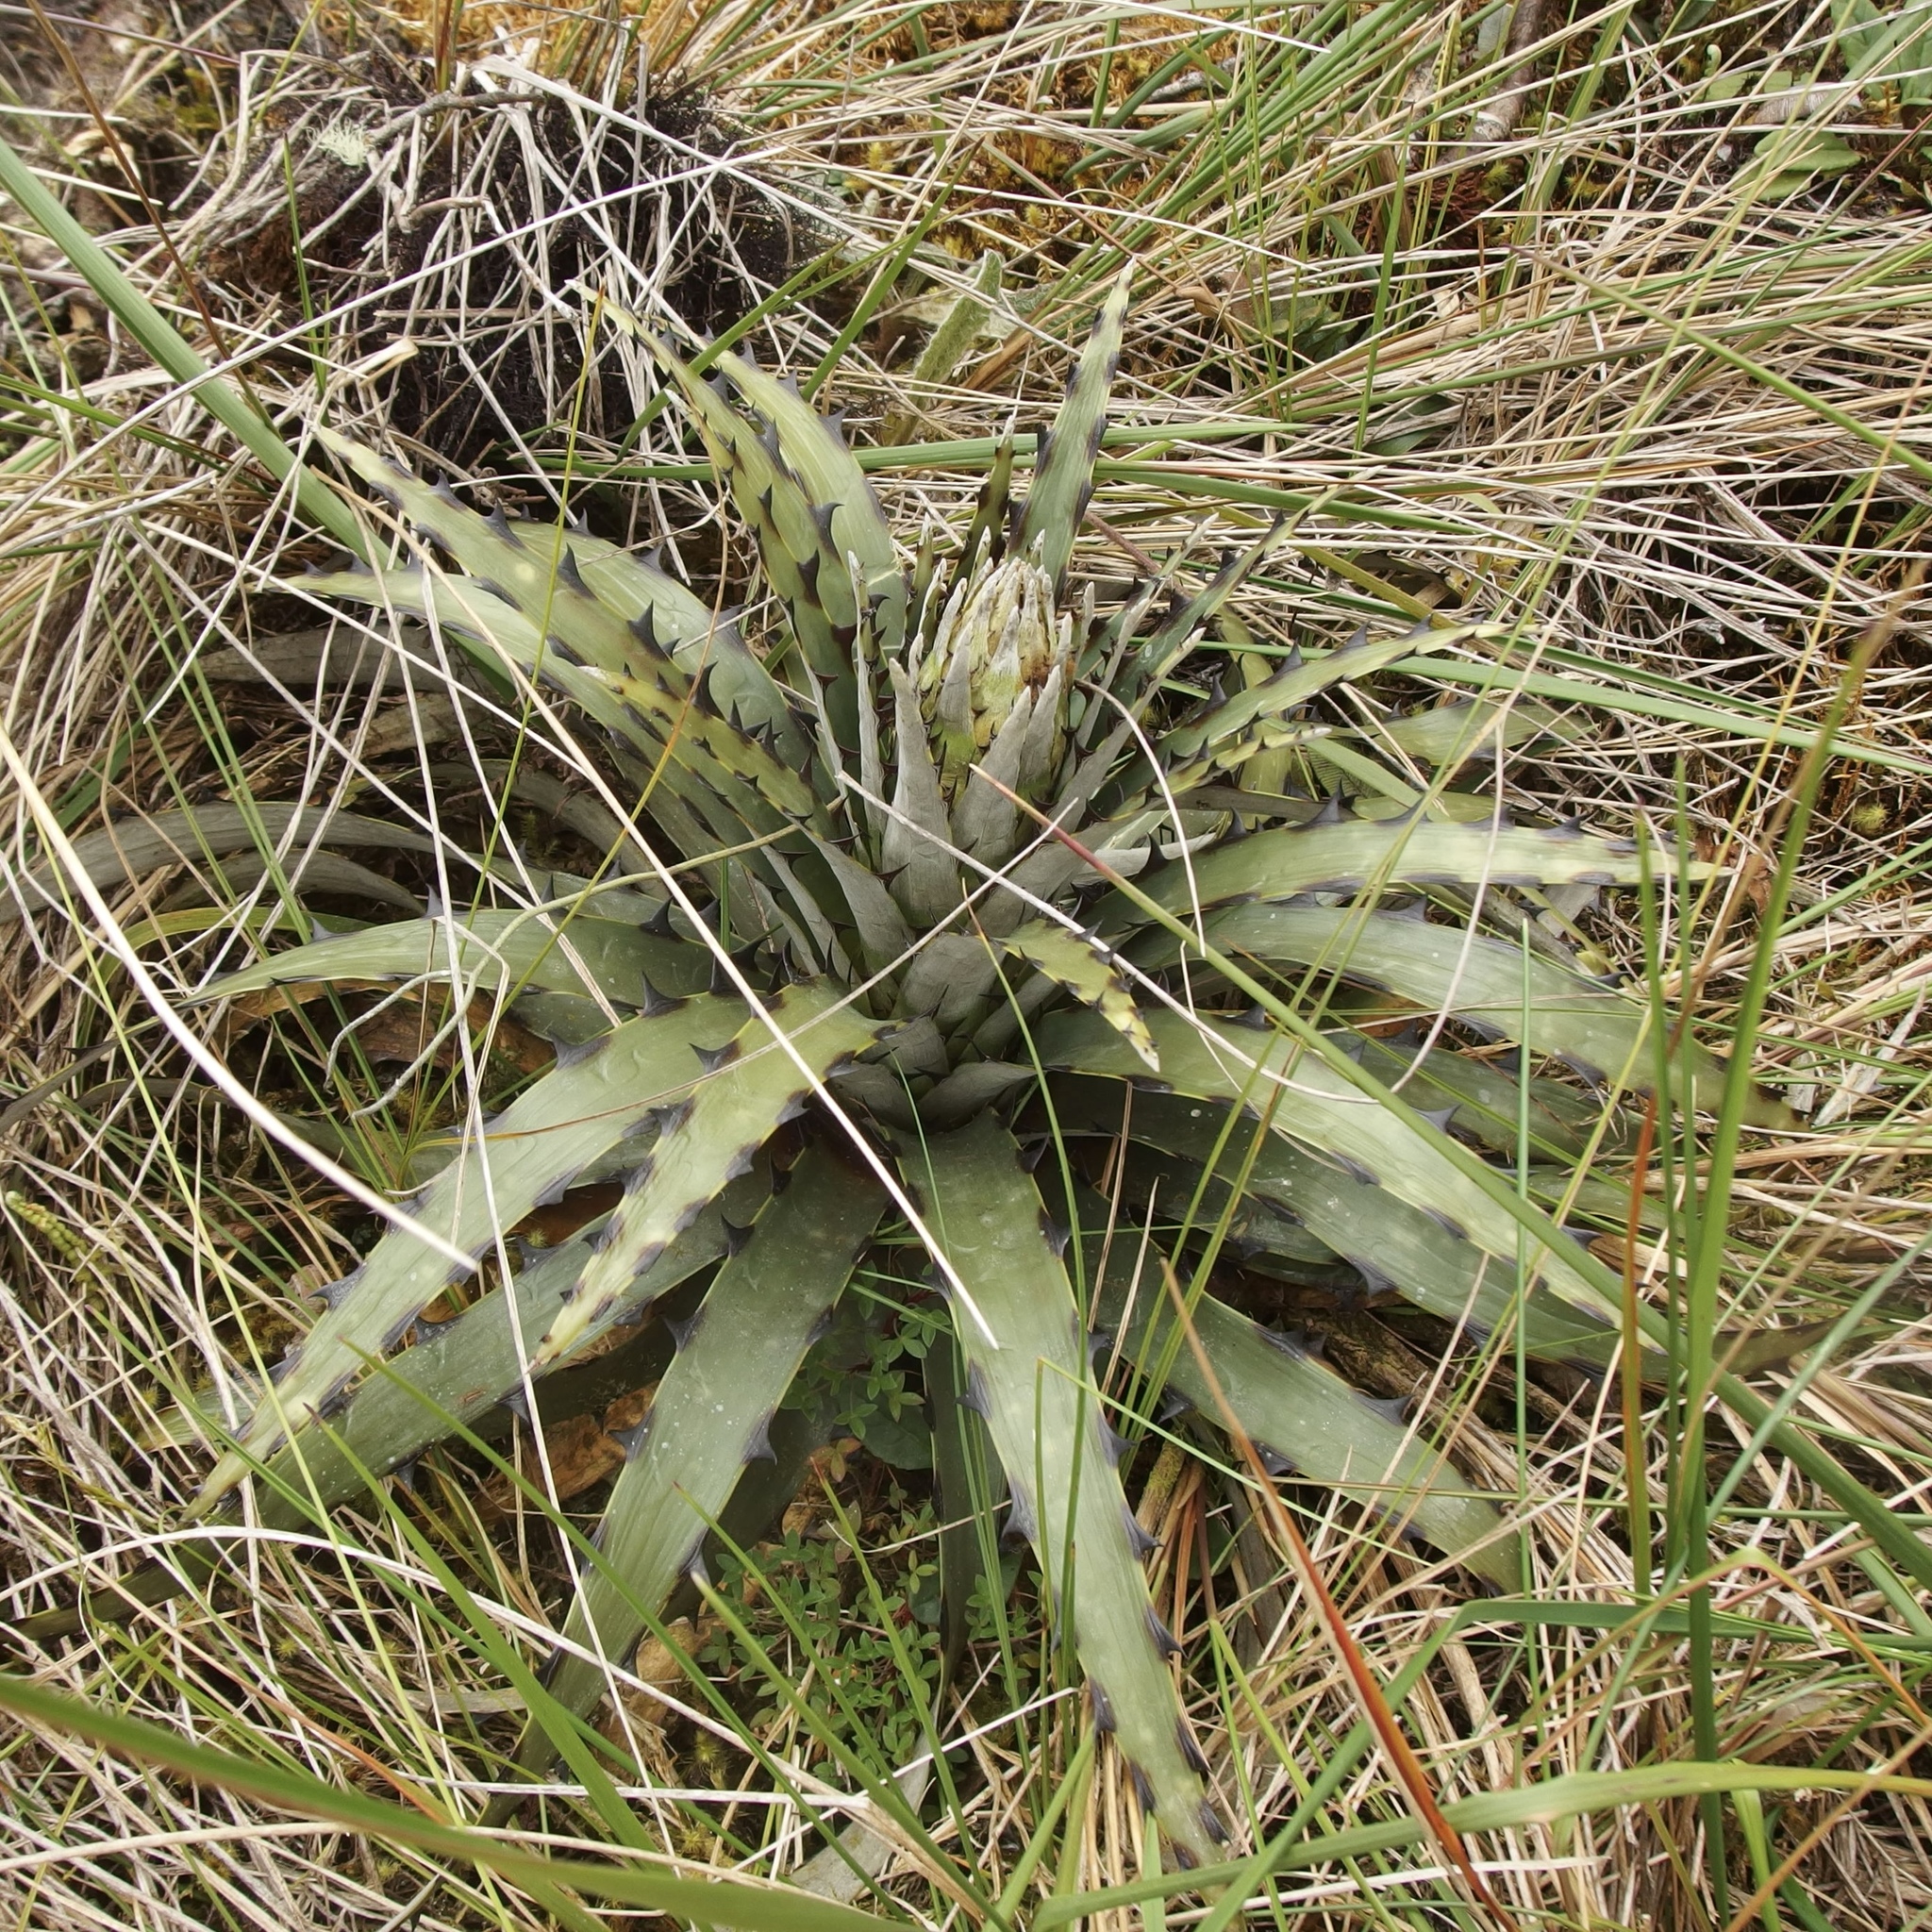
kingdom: Plantae
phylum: Tracheophyta
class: Liliopsida
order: Poales
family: Bromeliaceae
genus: Puya
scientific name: Puya cuevae
